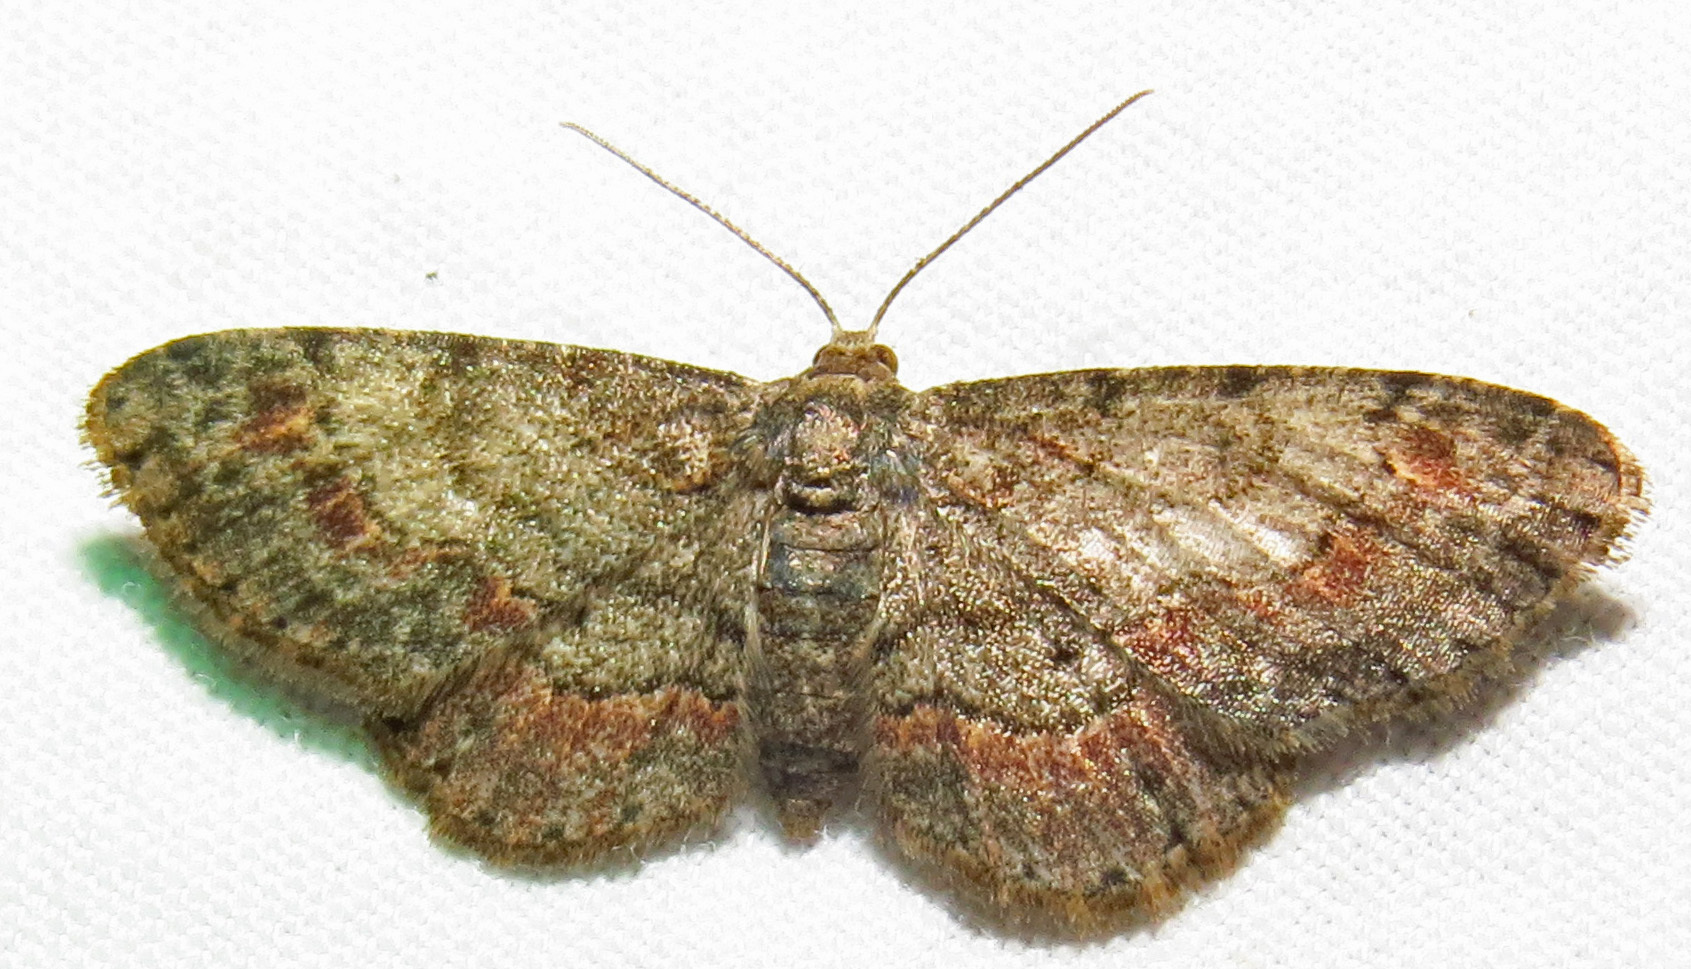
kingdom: Animalia
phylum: Arthropoda
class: Insecta
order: Lepidoptera
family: Geometridae
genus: Glenoides
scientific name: Glenoides texanaria
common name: Texas gray
